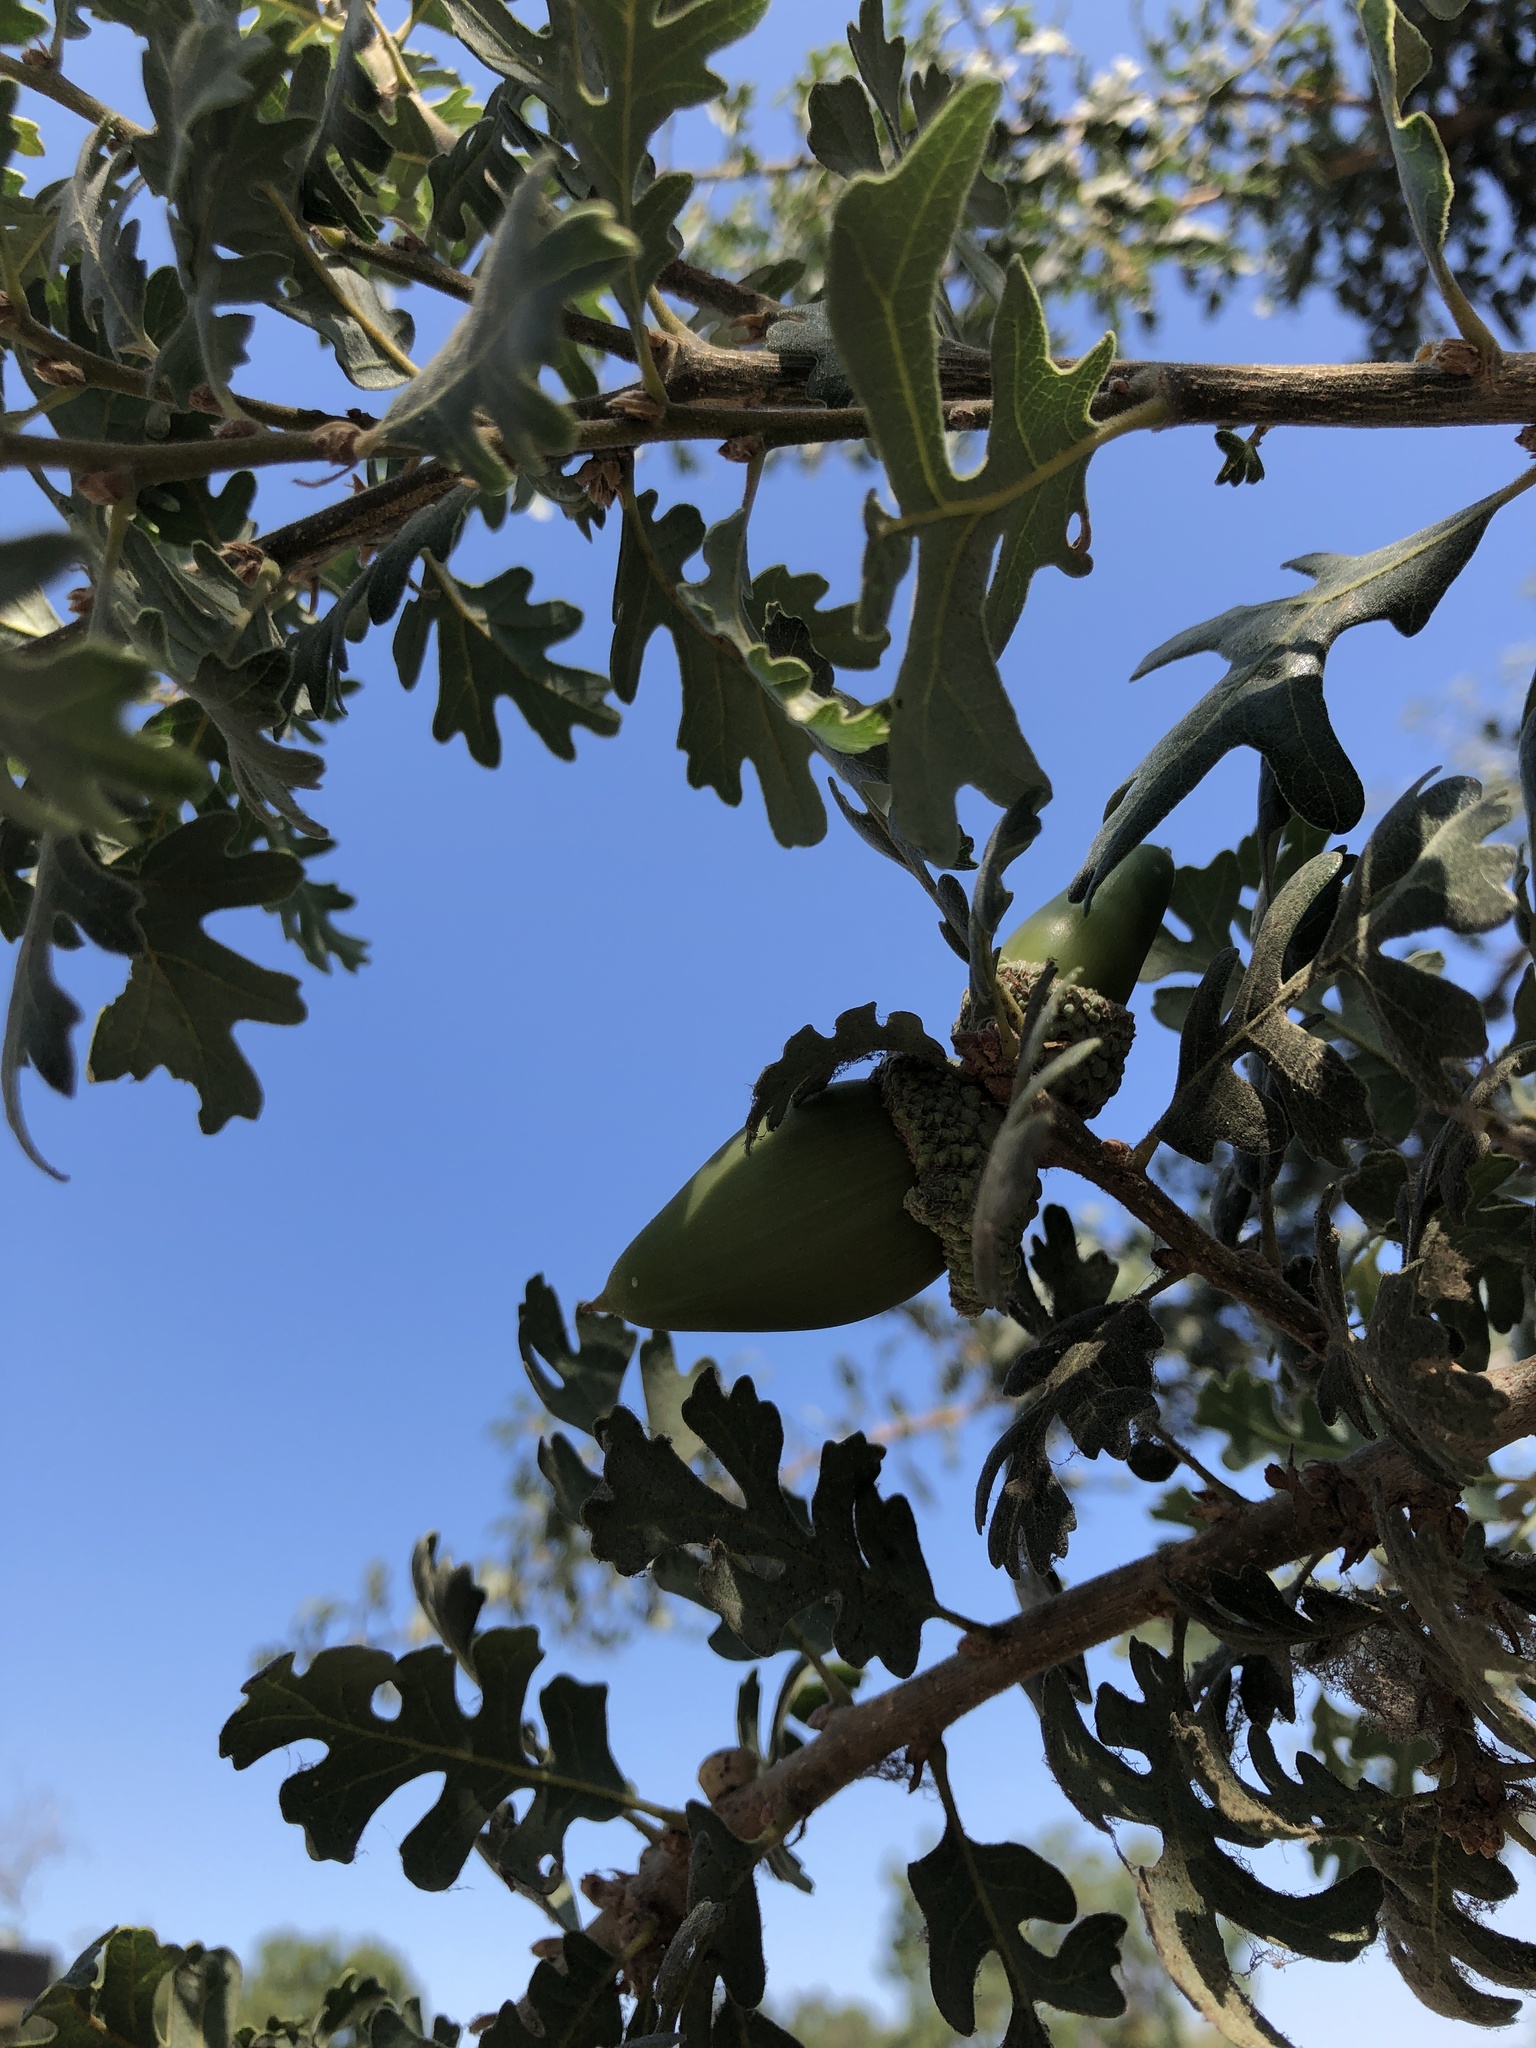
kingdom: Plantae
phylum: Tracheophyta
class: Magnoliopsida
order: Fagales
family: Fagaceae
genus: Quercus
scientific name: Quercus lobata
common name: Valley oak
